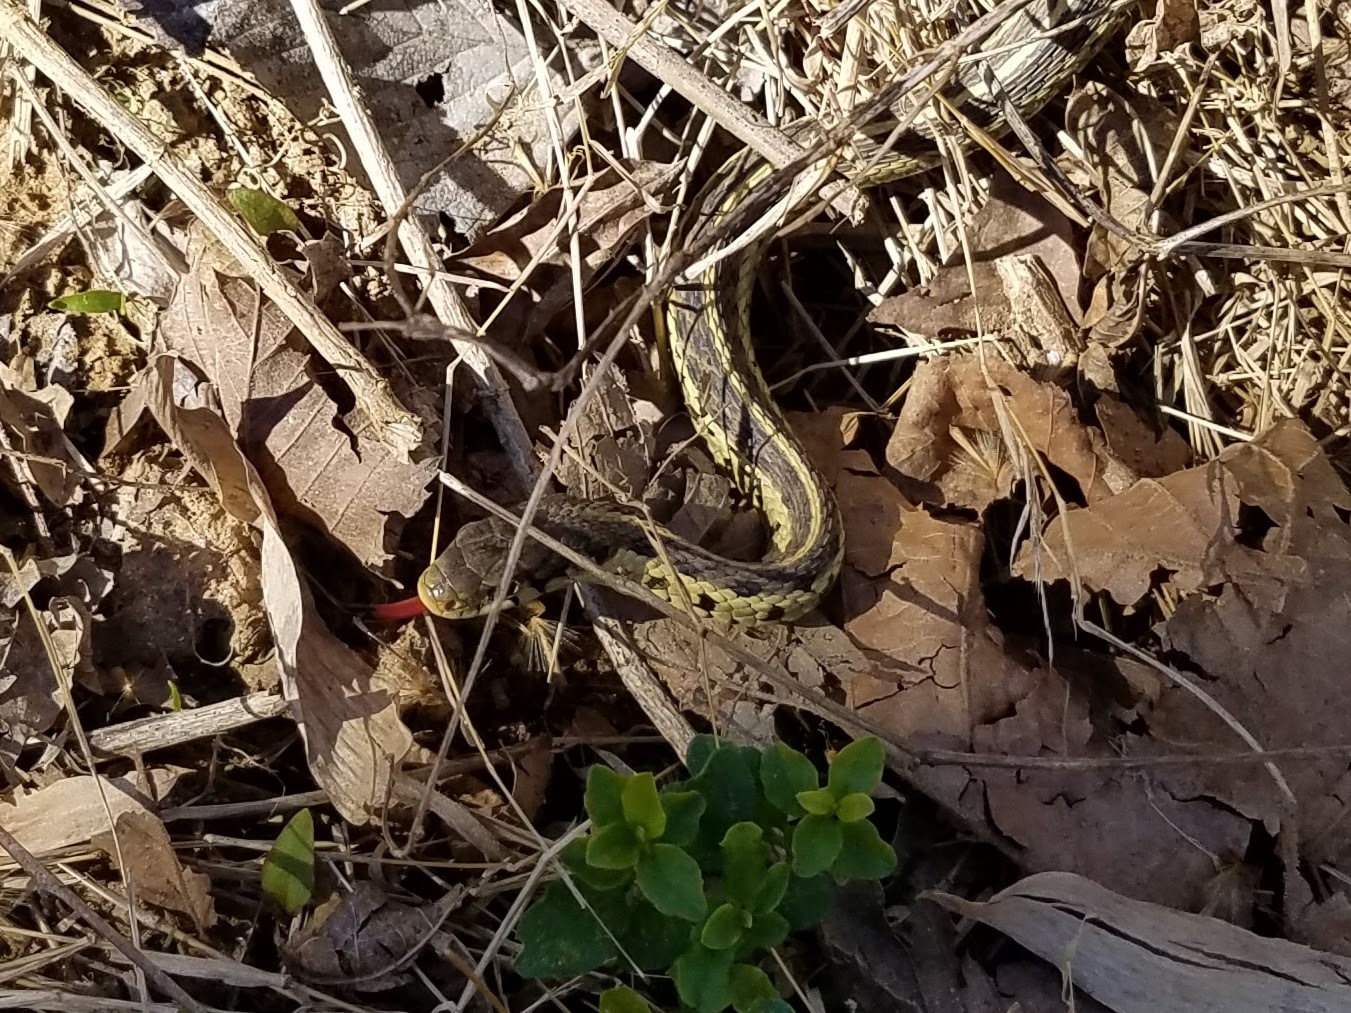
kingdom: Animalia
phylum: Chordata
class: Squamata
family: Colubridae
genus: Thamnophis
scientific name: Thamnophis sirtalis
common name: Common garter snake
